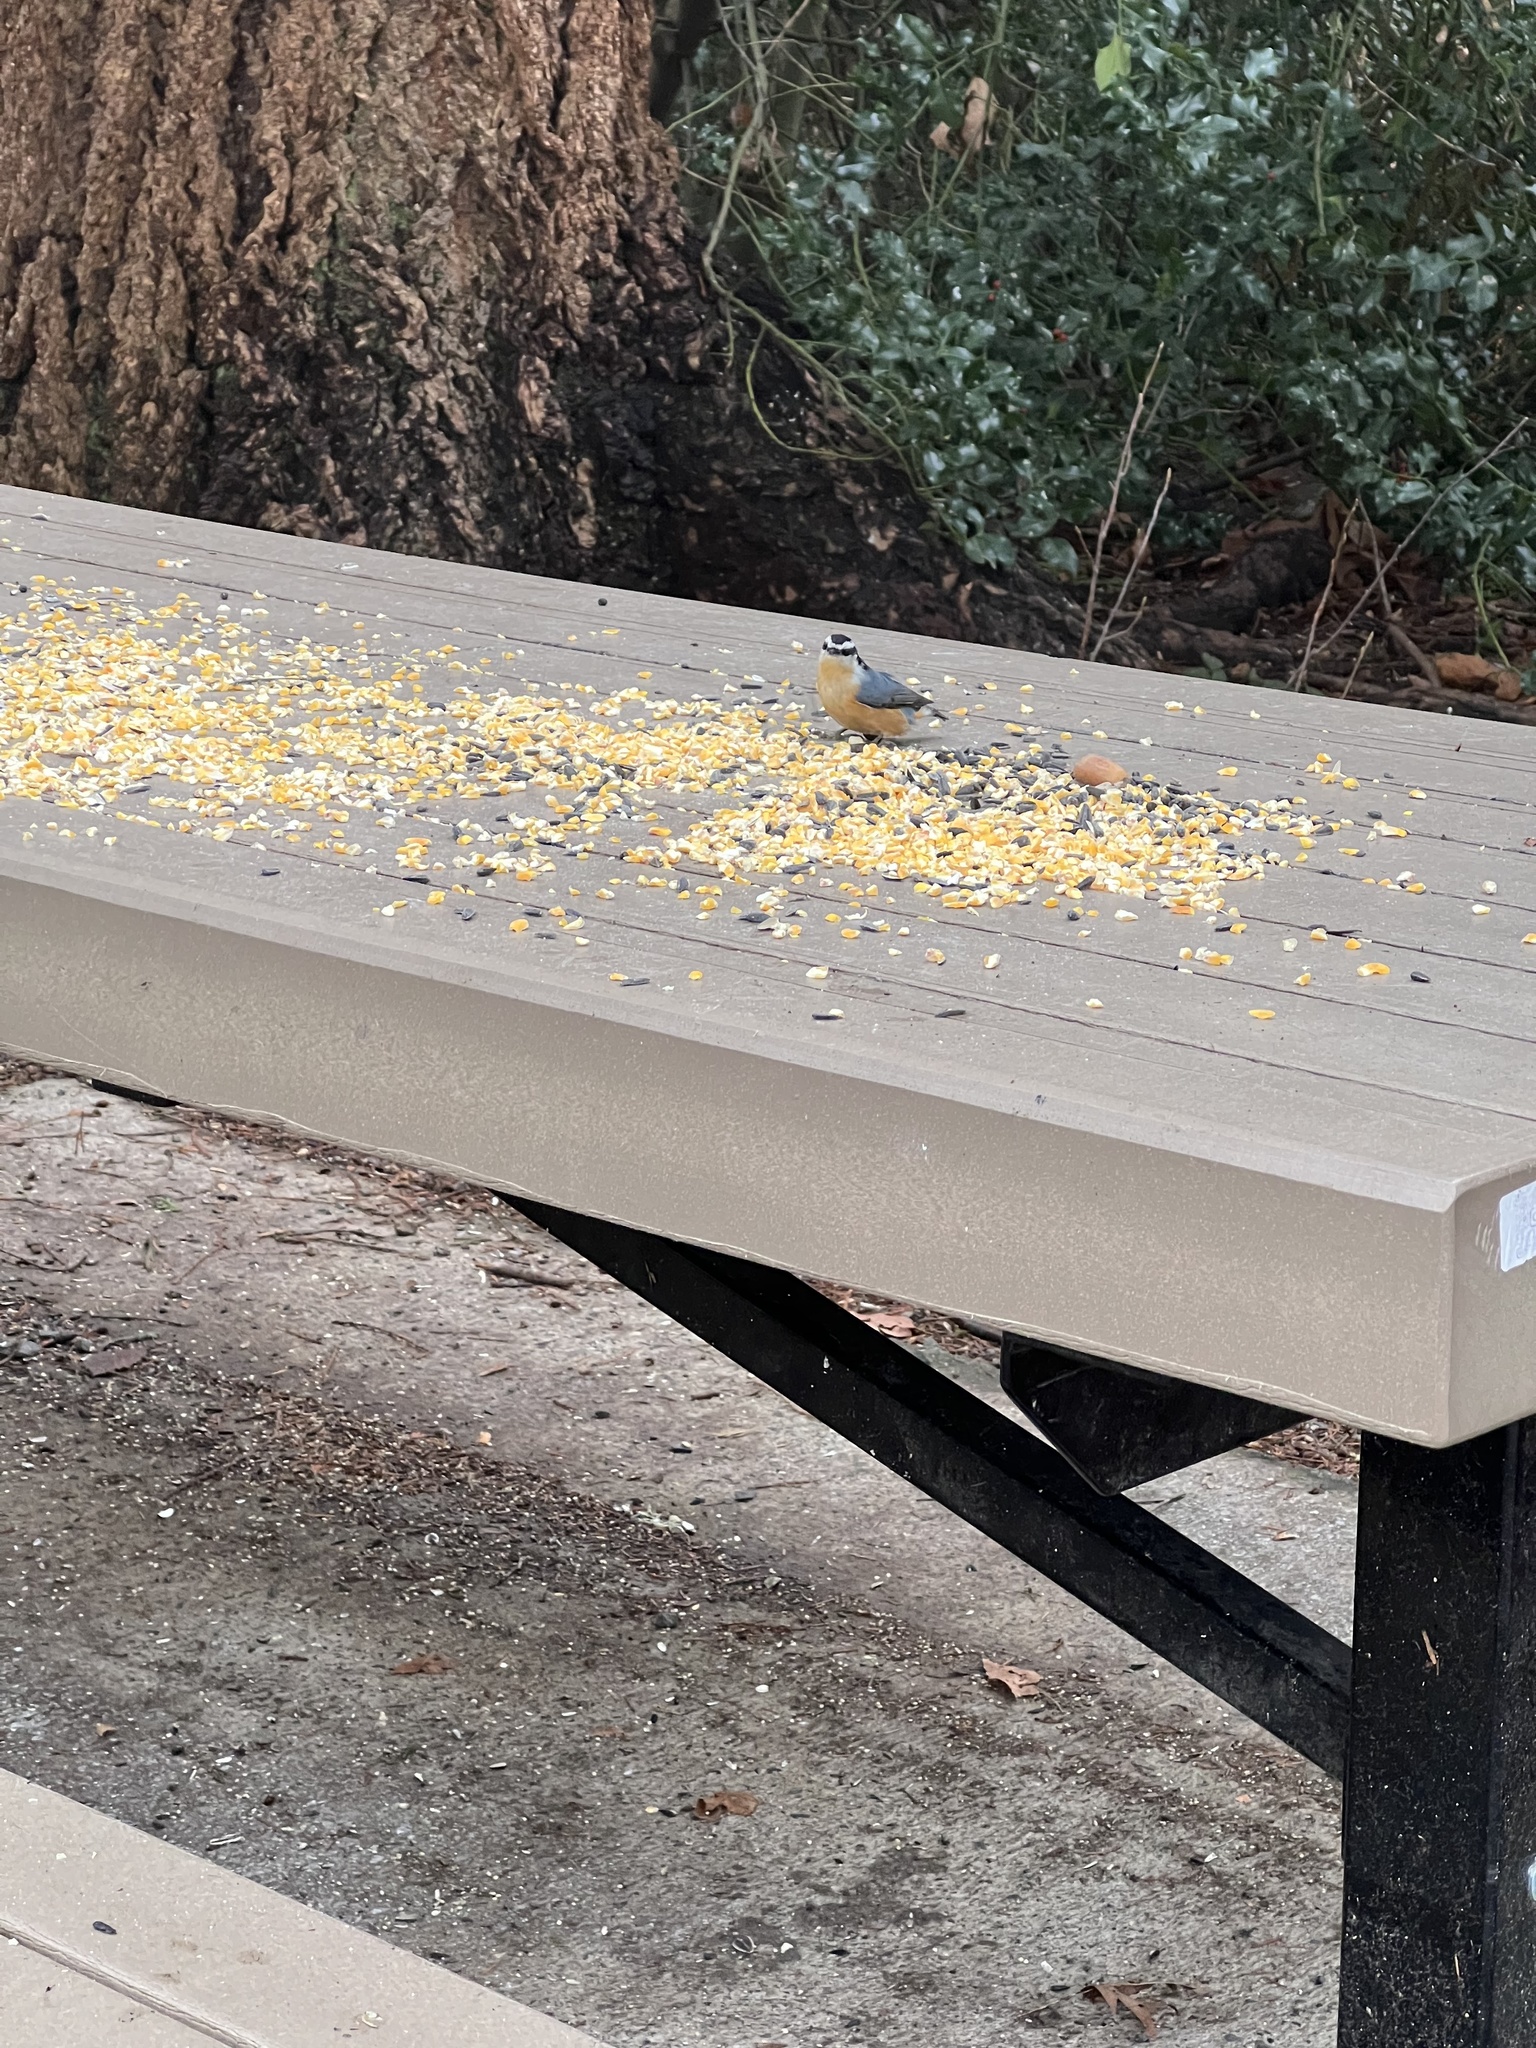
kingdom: Animalia
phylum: Chordata
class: Aves
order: Passeriformes
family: Sittidae
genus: Sitta
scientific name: Sitta canadensis
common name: Red-breasted nuthatch
